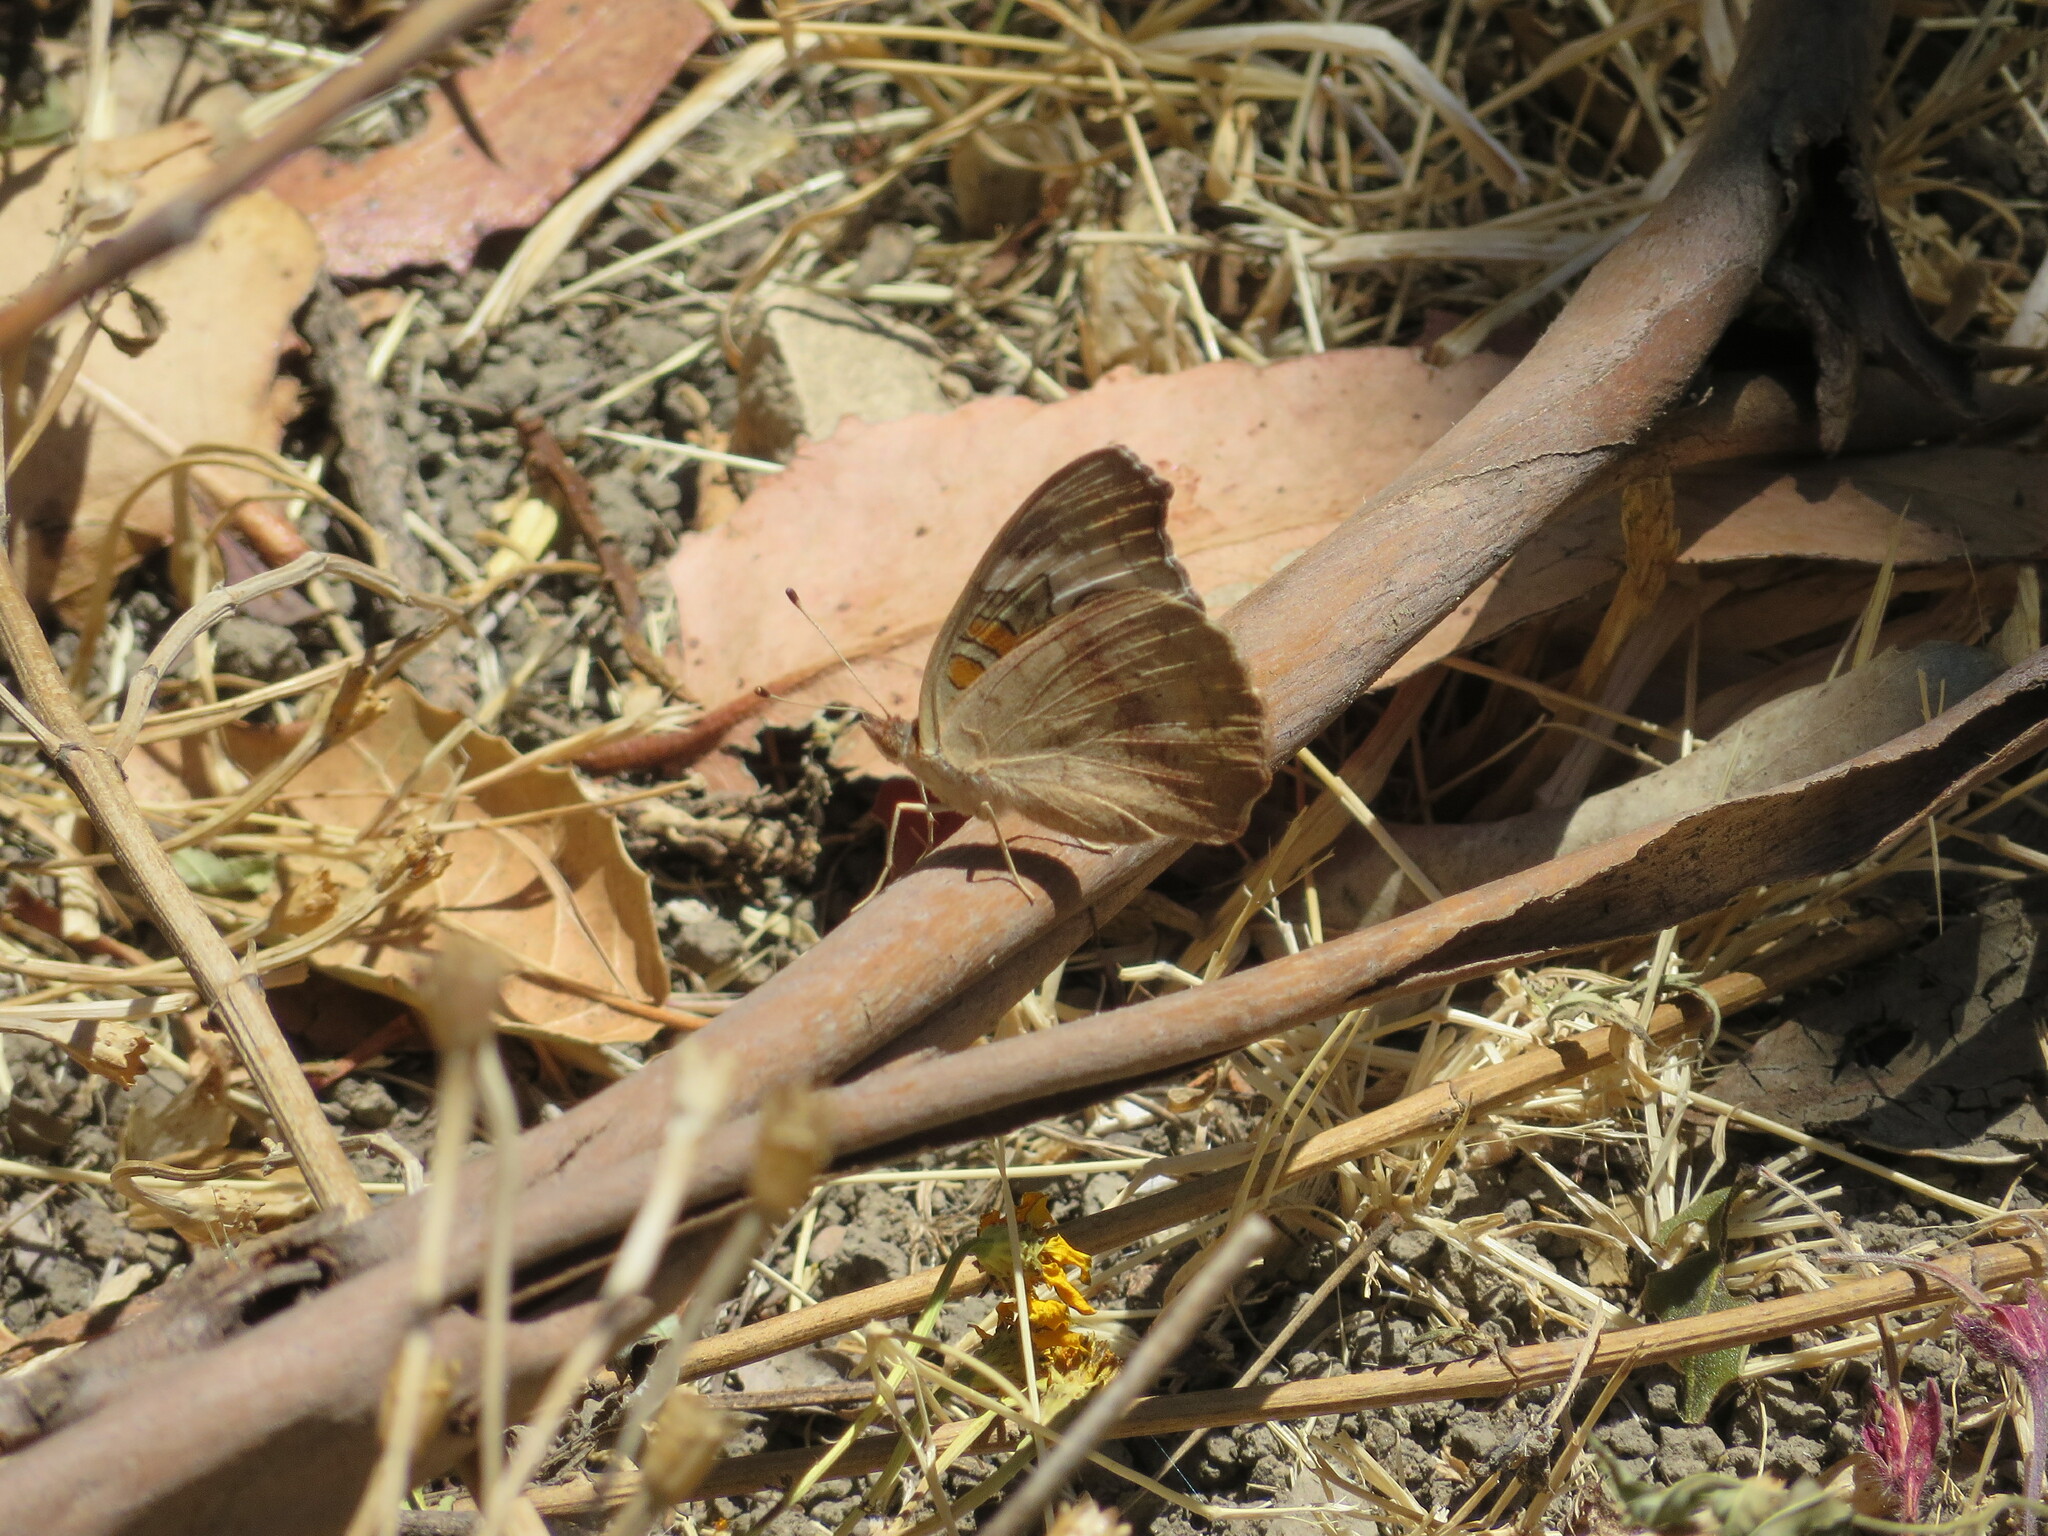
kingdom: Animalia
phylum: Arthropoda
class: Insecta
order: Lepidoptera
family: Nymphalidae
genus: Junonia
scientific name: Junonia grisea
